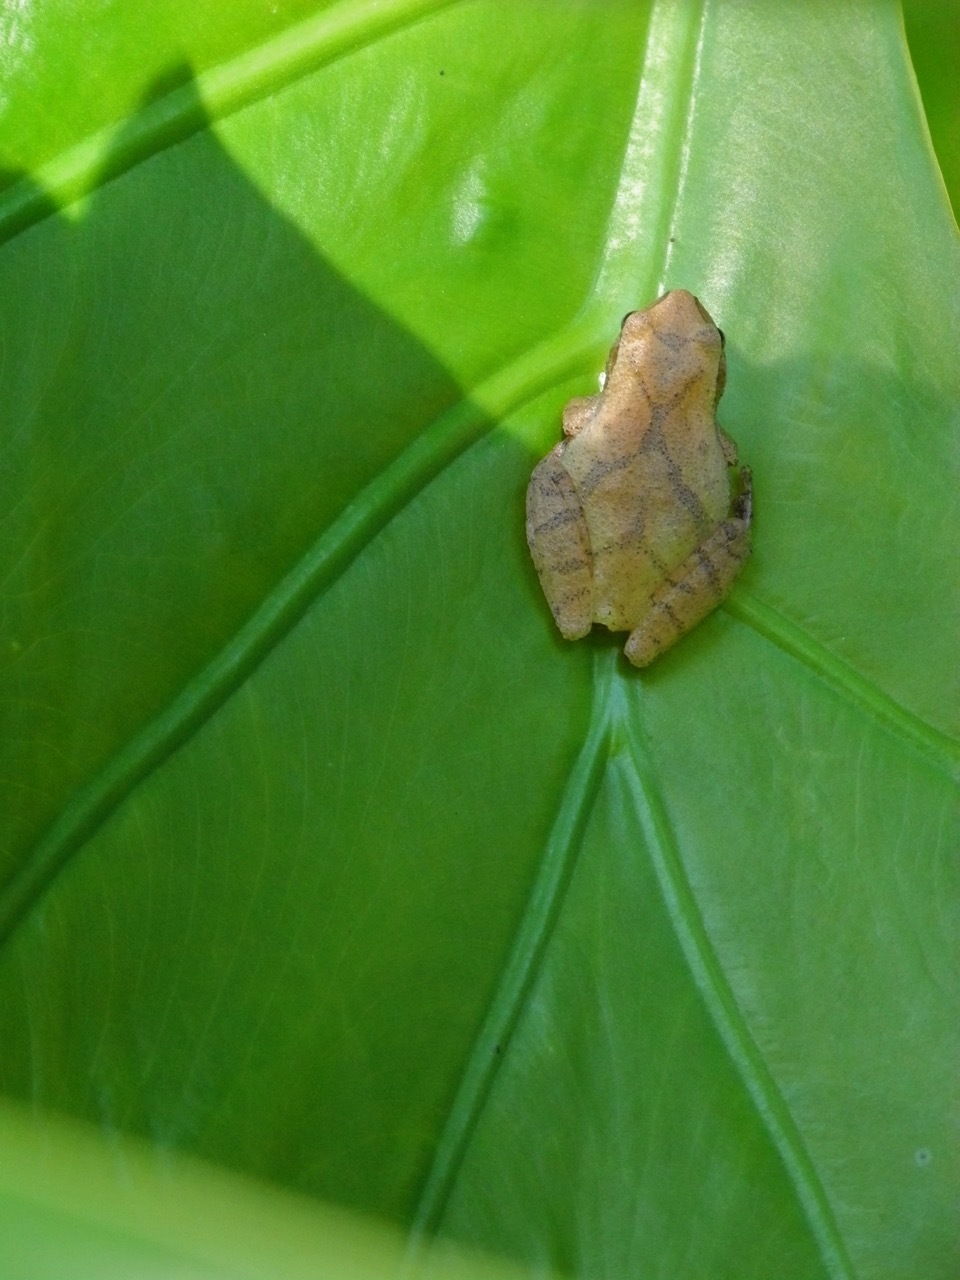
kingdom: Animalia
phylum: Chordata
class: Amphibia
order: Anura
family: Hylidae
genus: Pseudacris
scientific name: Pseudacris crucifer
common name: Spring peeper
